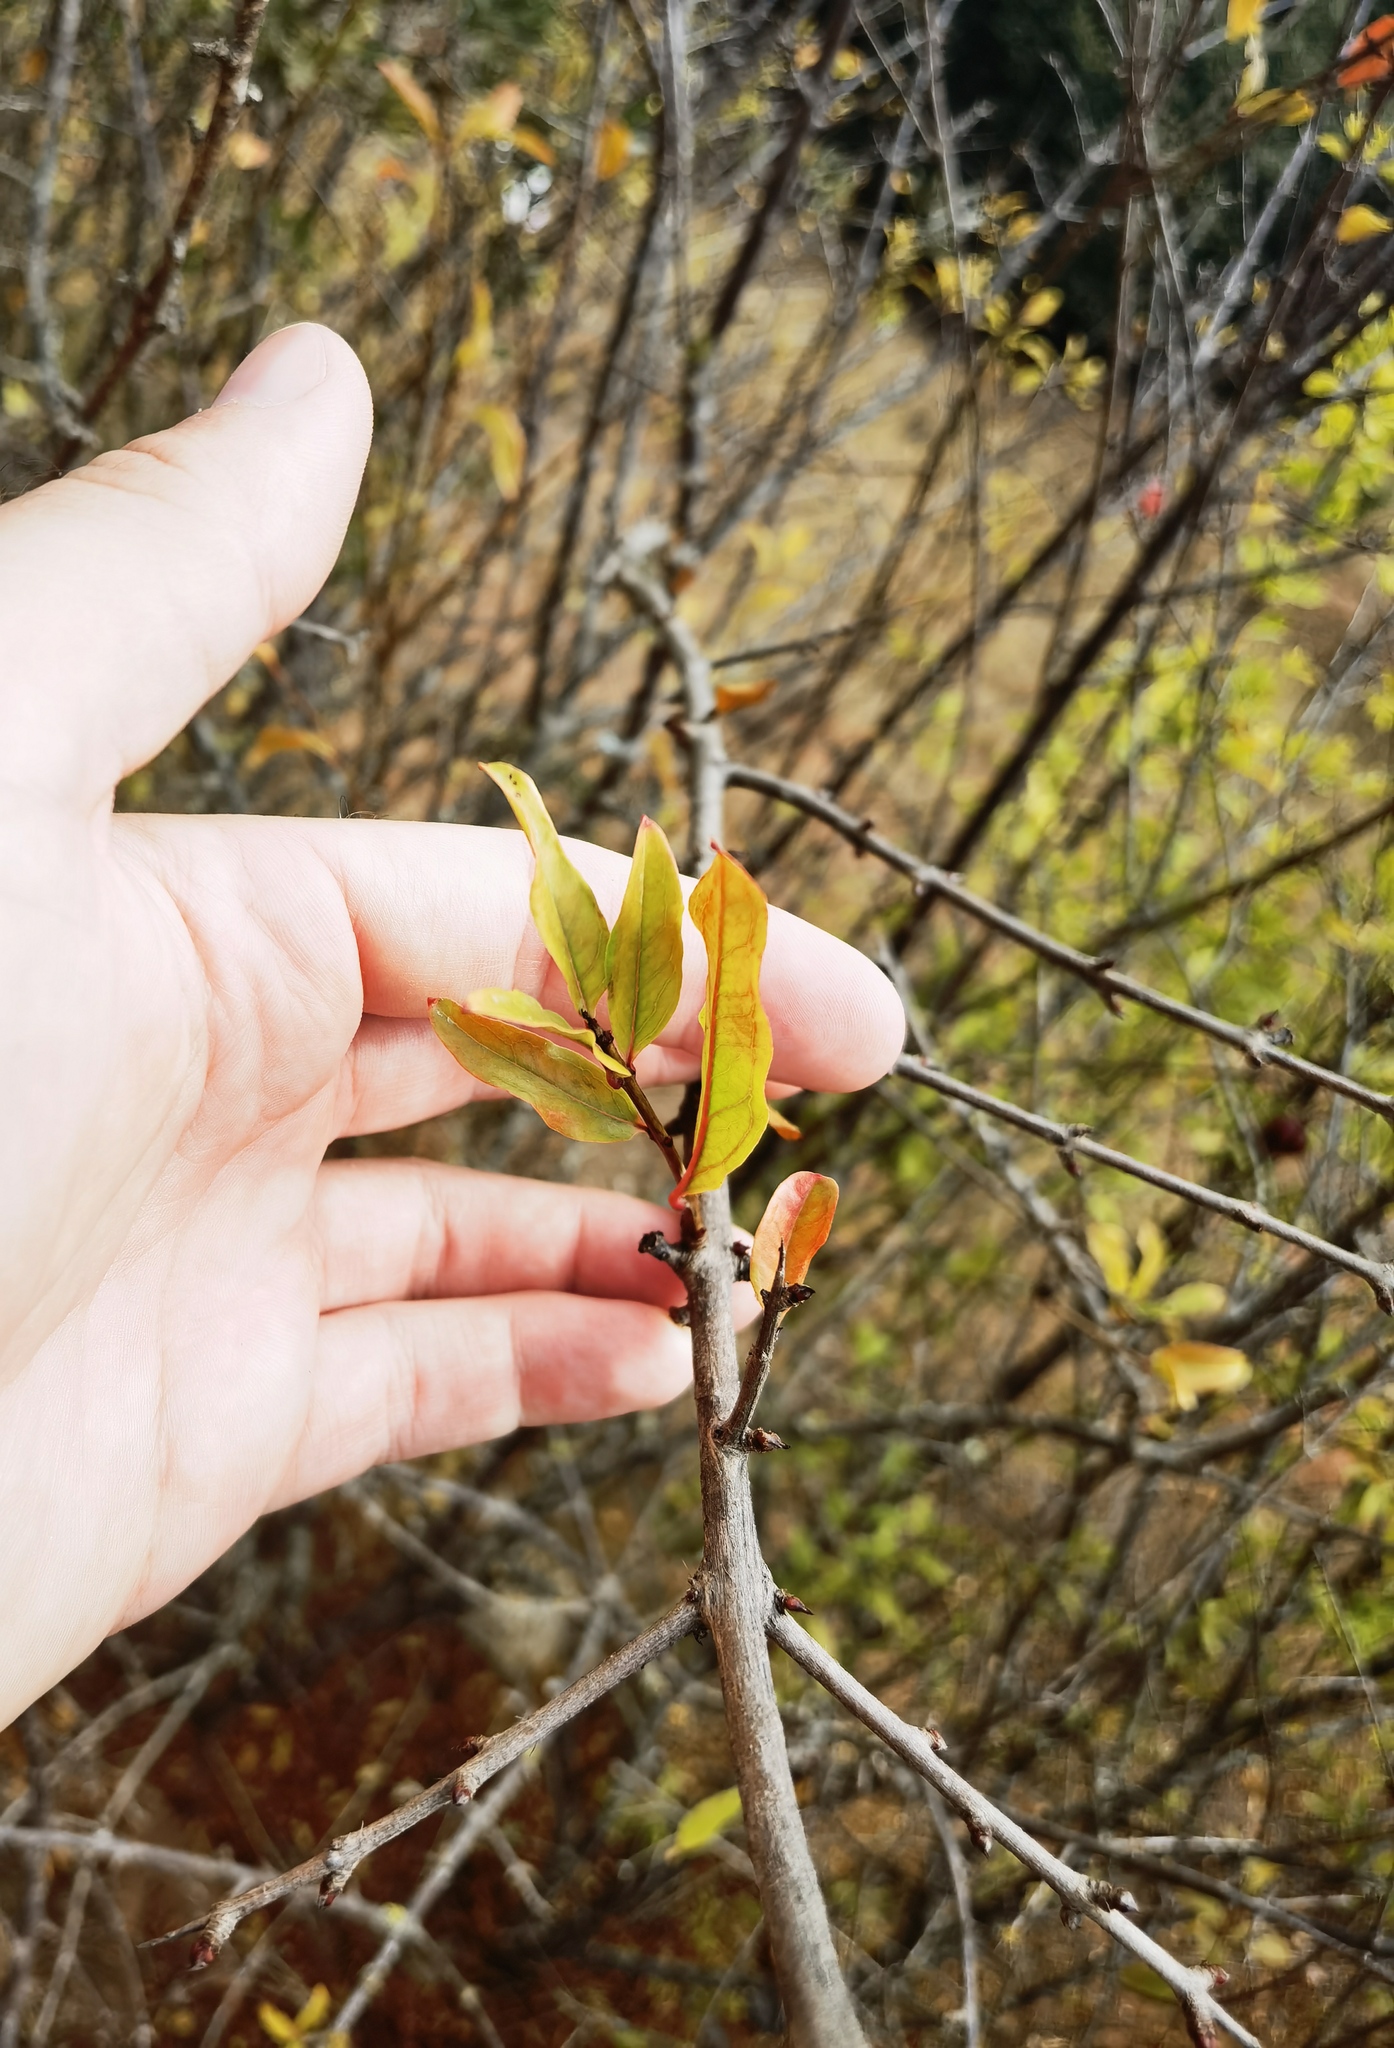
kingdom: Plantae
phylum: Tracheophyta
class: Magnoliopsida
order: Myrtales
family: Lythraceae
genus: Punica
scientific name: Punica granatum
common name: Pomegranate
